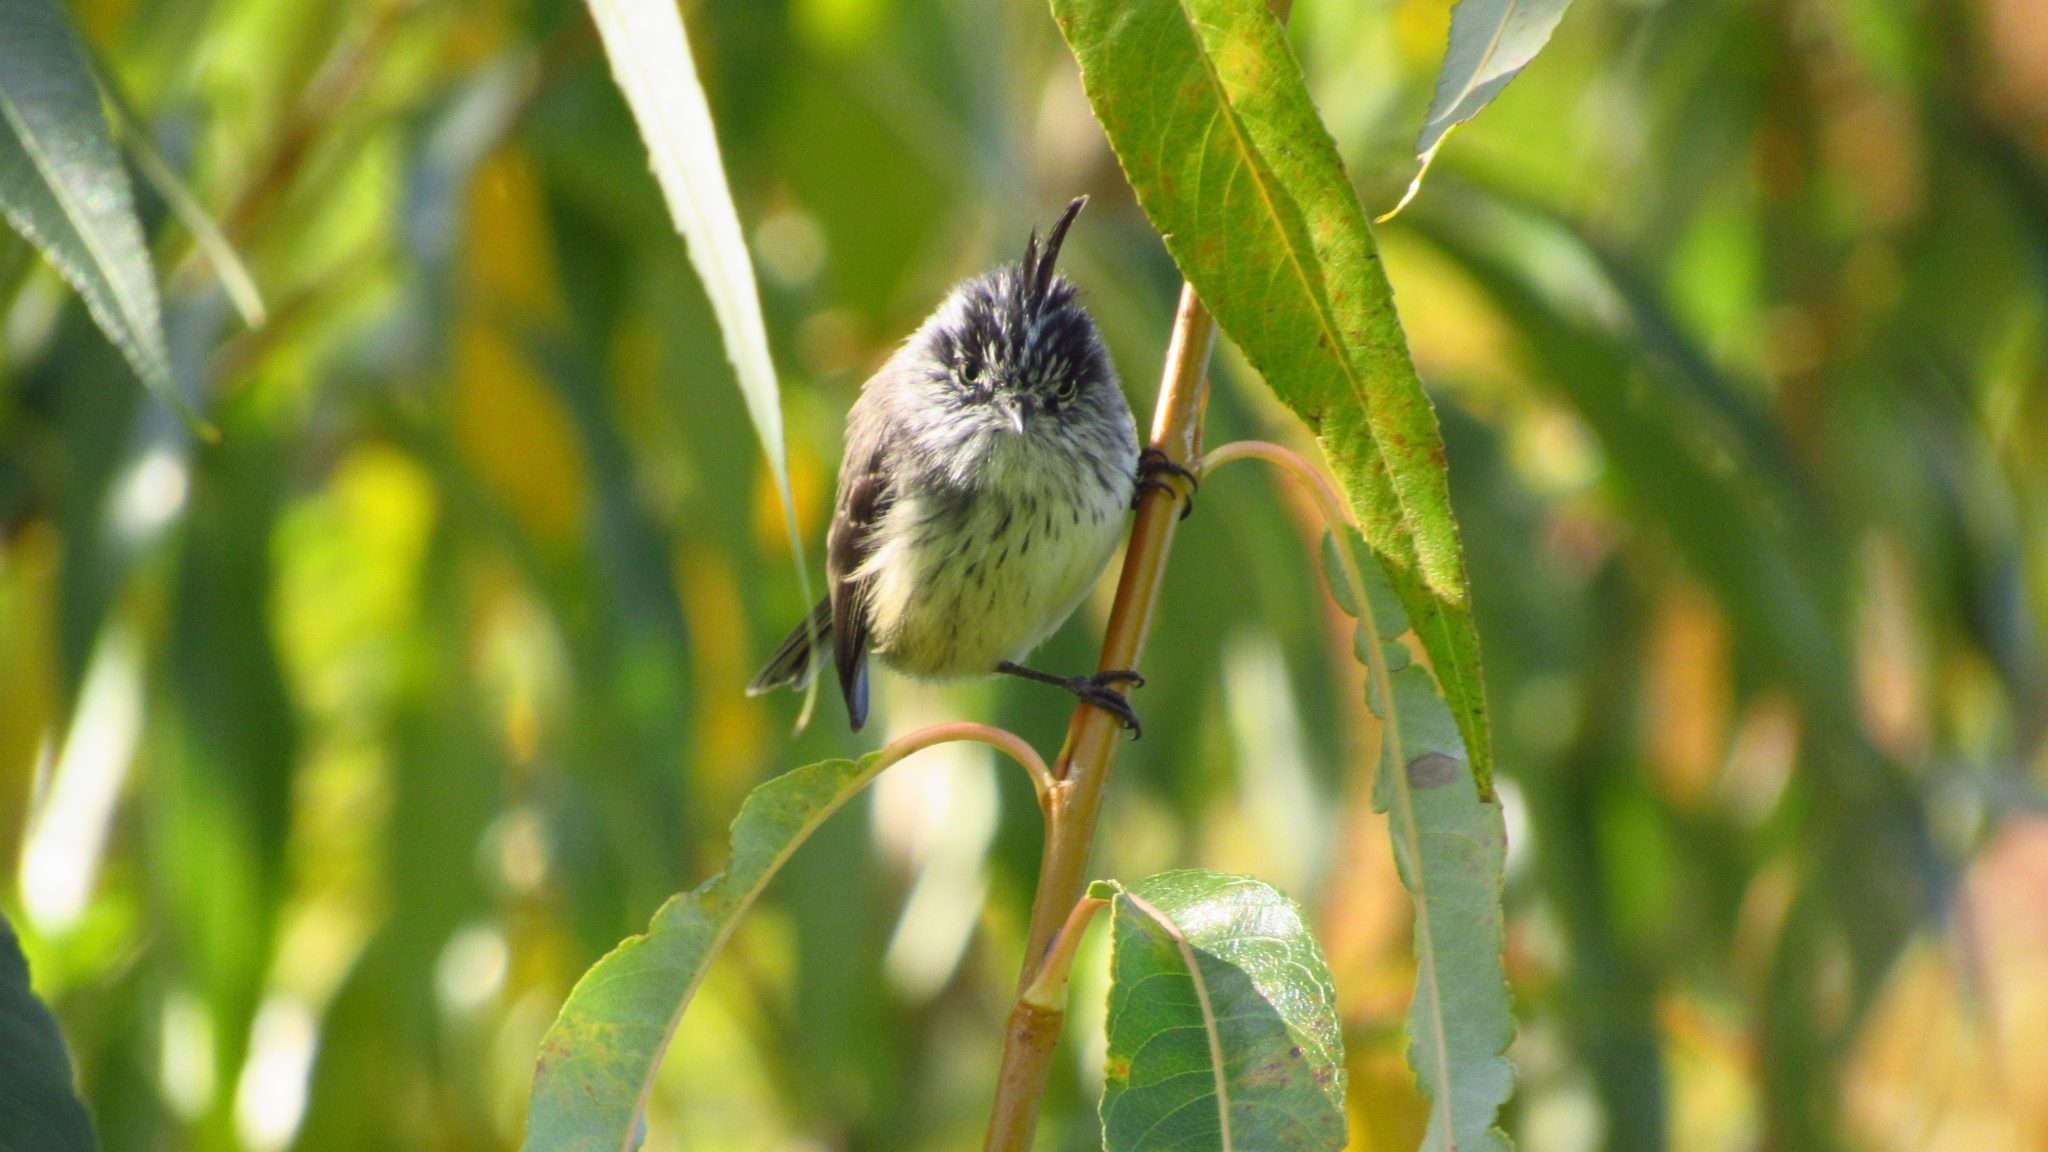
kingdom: Animalia
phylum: Chordata
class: Aves
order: Passeriformes
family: Tyrannidae
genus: Anairetes
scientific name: Anairetes parulus
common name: Tufted tit-tyrant
